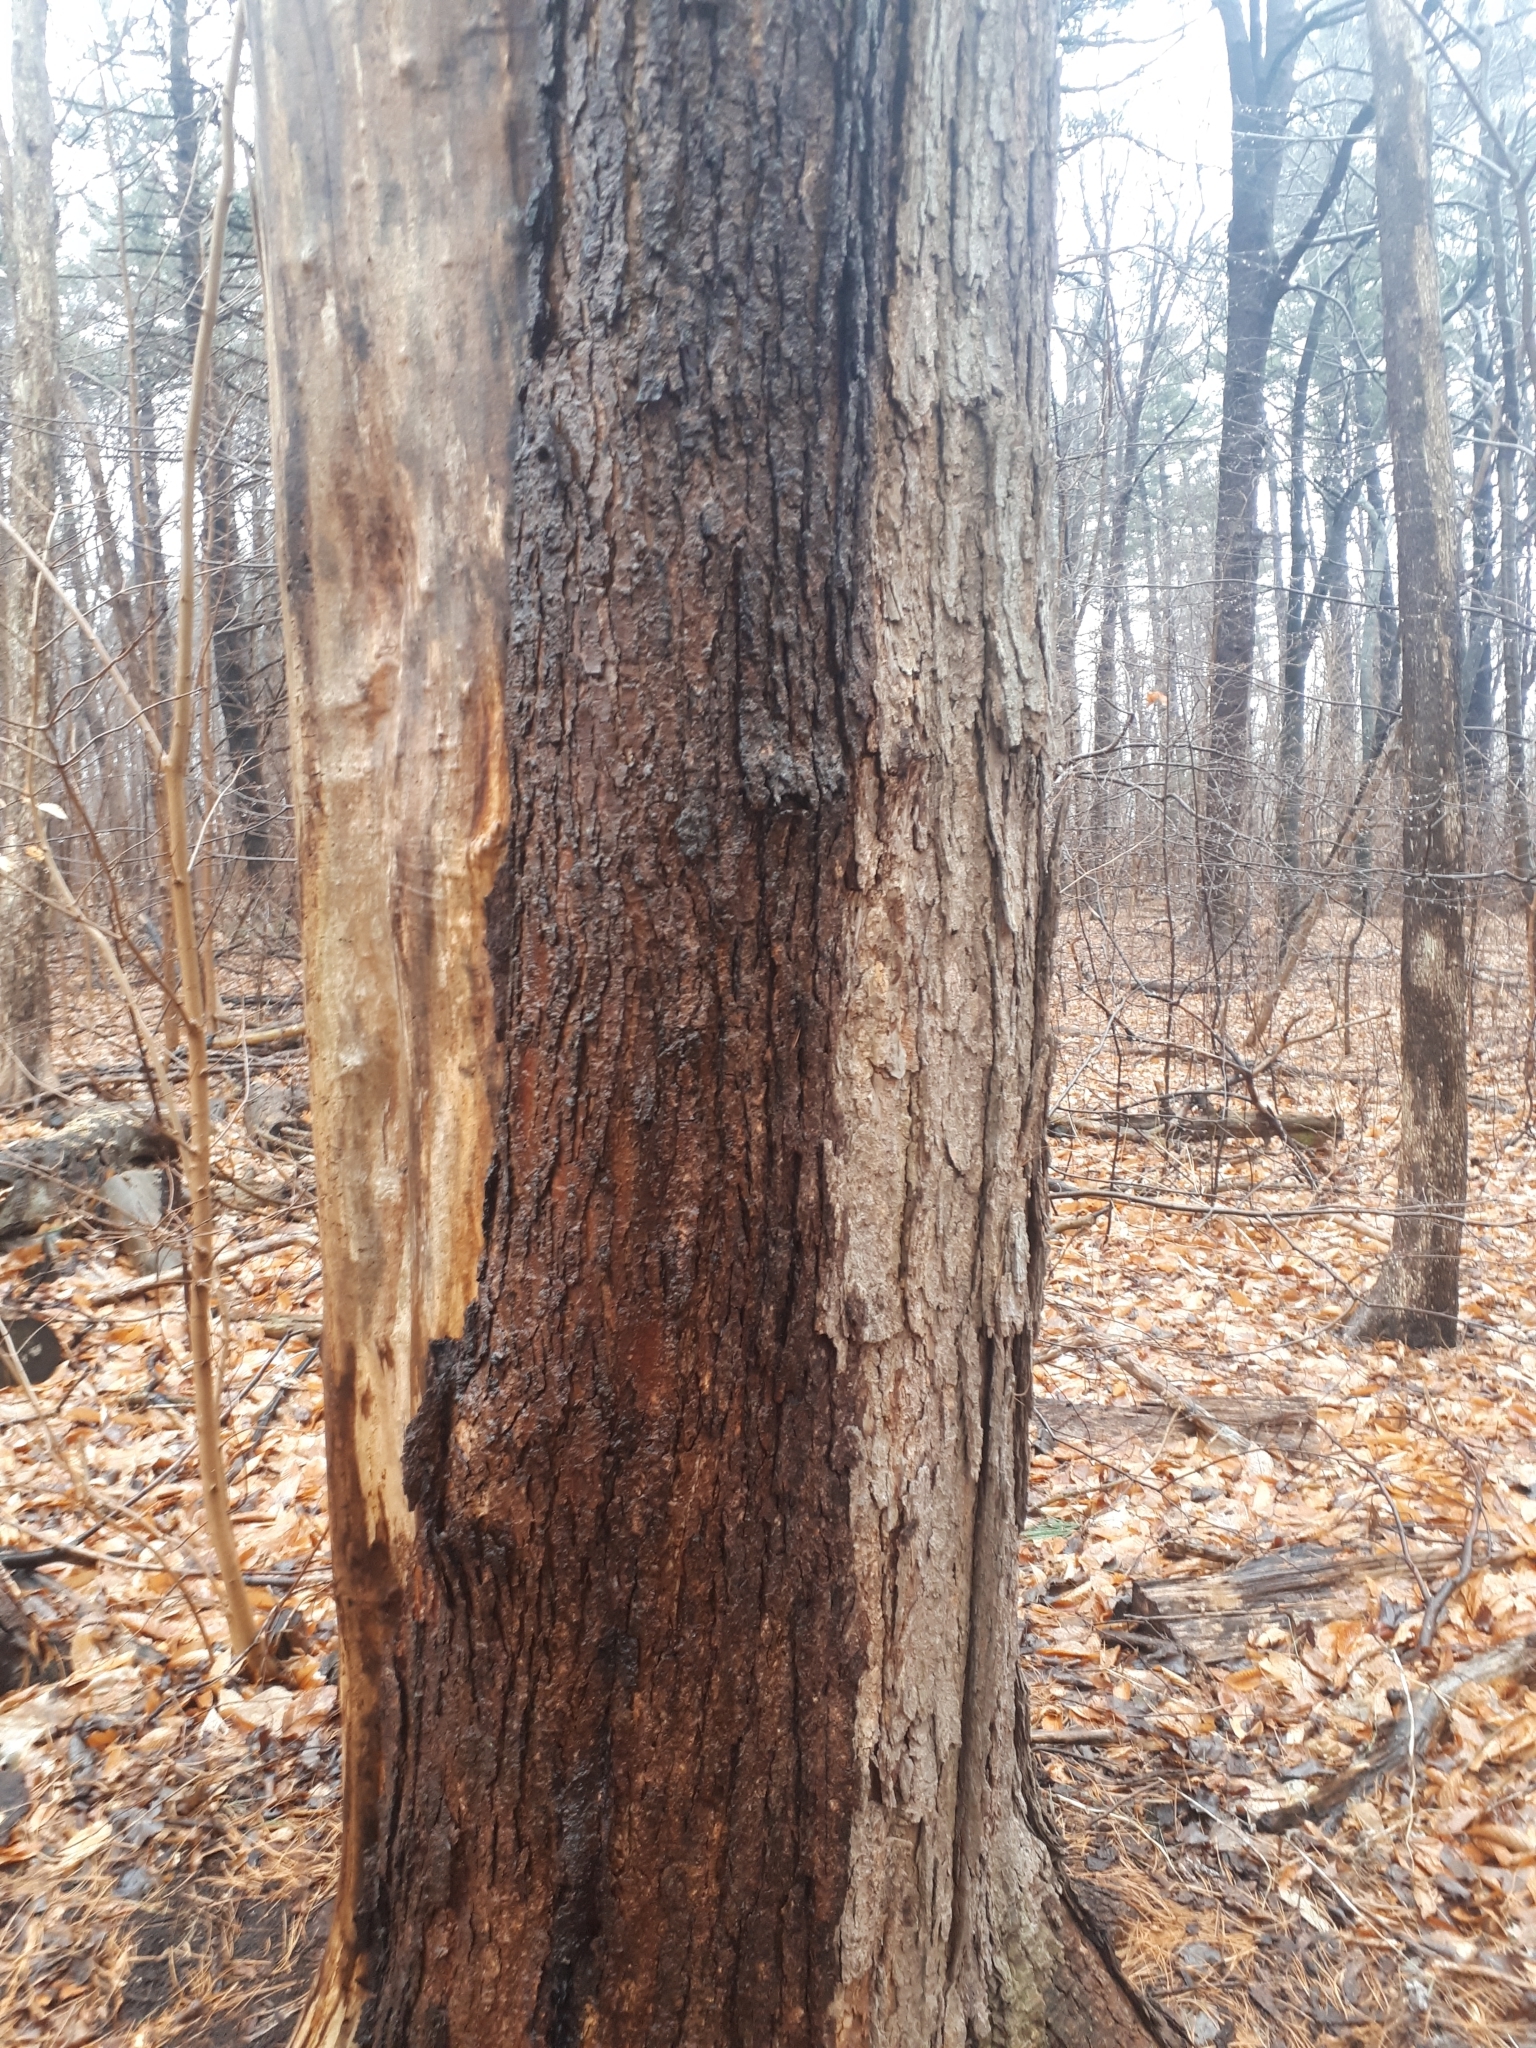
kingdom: Plantae
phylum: Tracheophyta
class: Magnoliopsida
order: Sapindales
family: Sapindaceae
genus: Acer
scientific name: Acer saccharum
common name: Sugar maple
